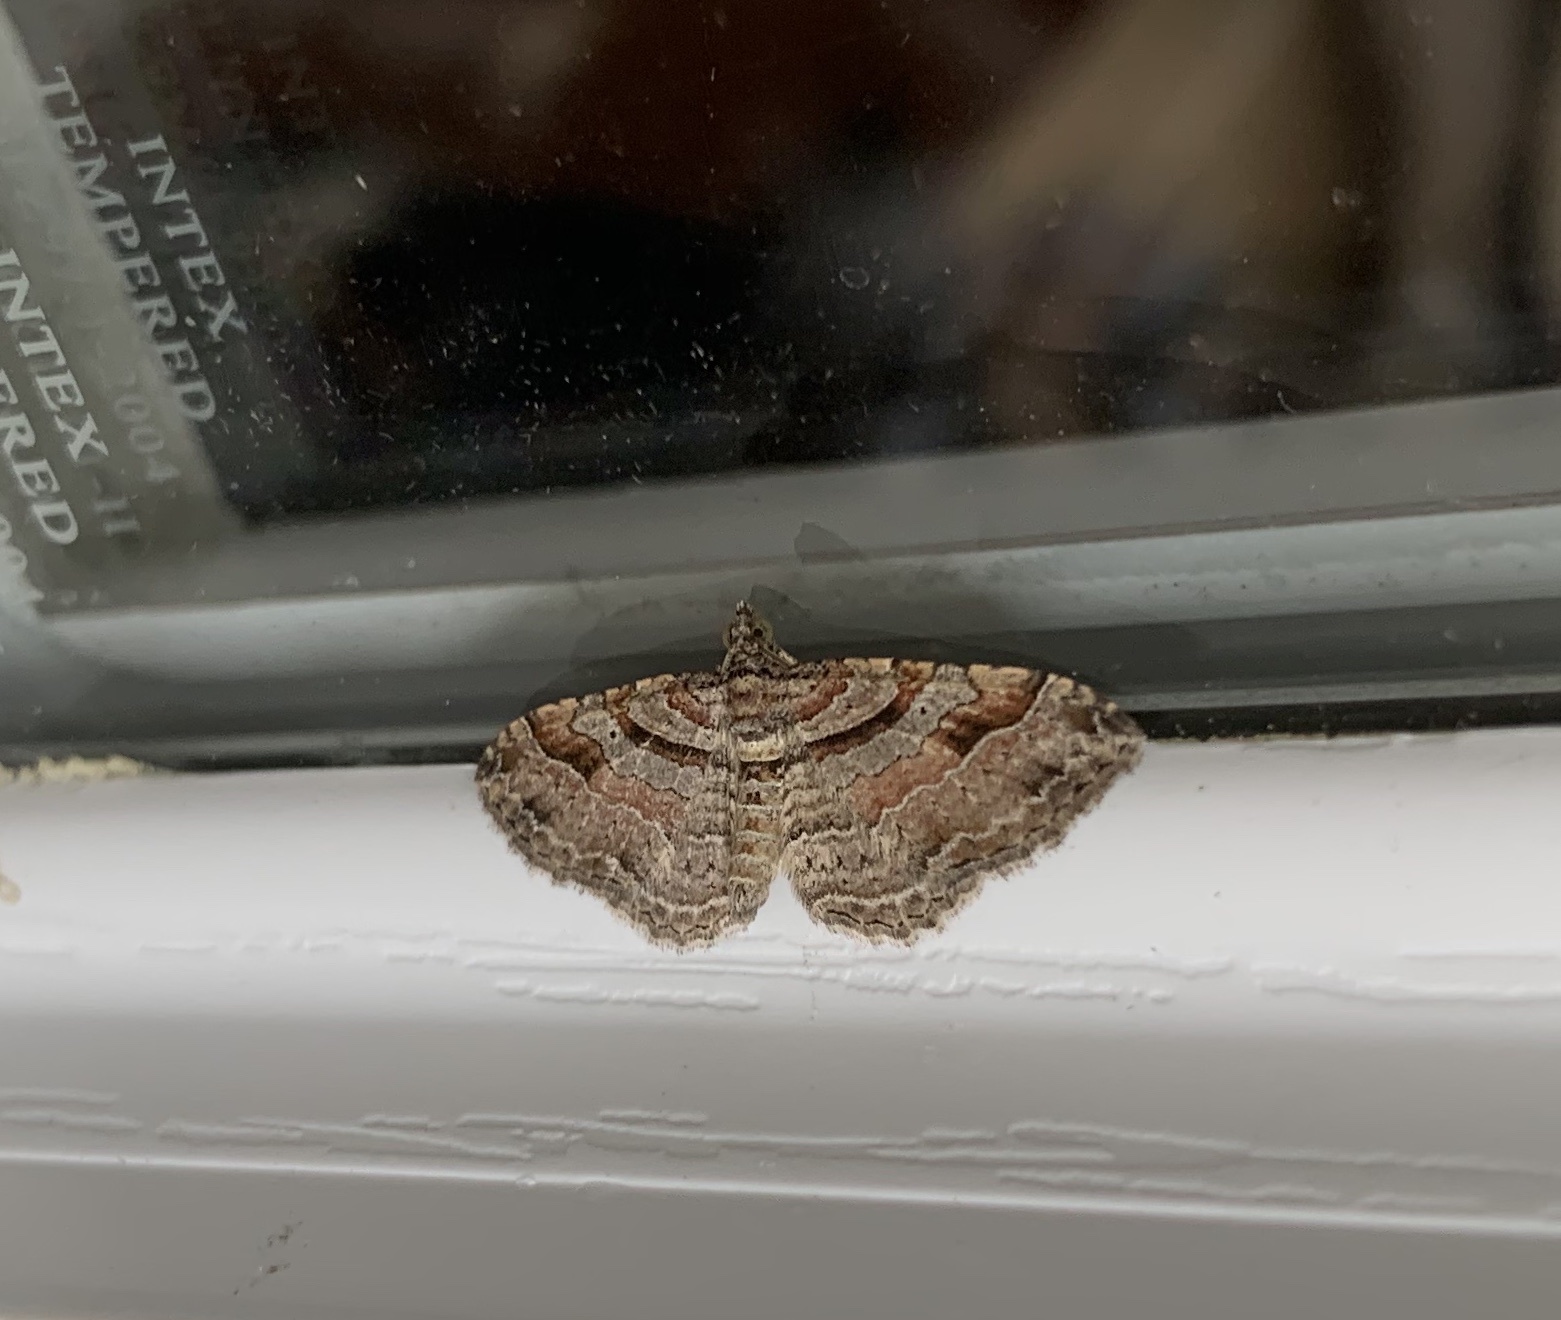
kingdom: Animalia
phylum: Arthropoda
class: Insecta
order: Lepidoptera
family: Geometridae
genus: Costaconvexa
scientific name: Costaconvexa centrostrigaria
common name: Bent-line carpet
